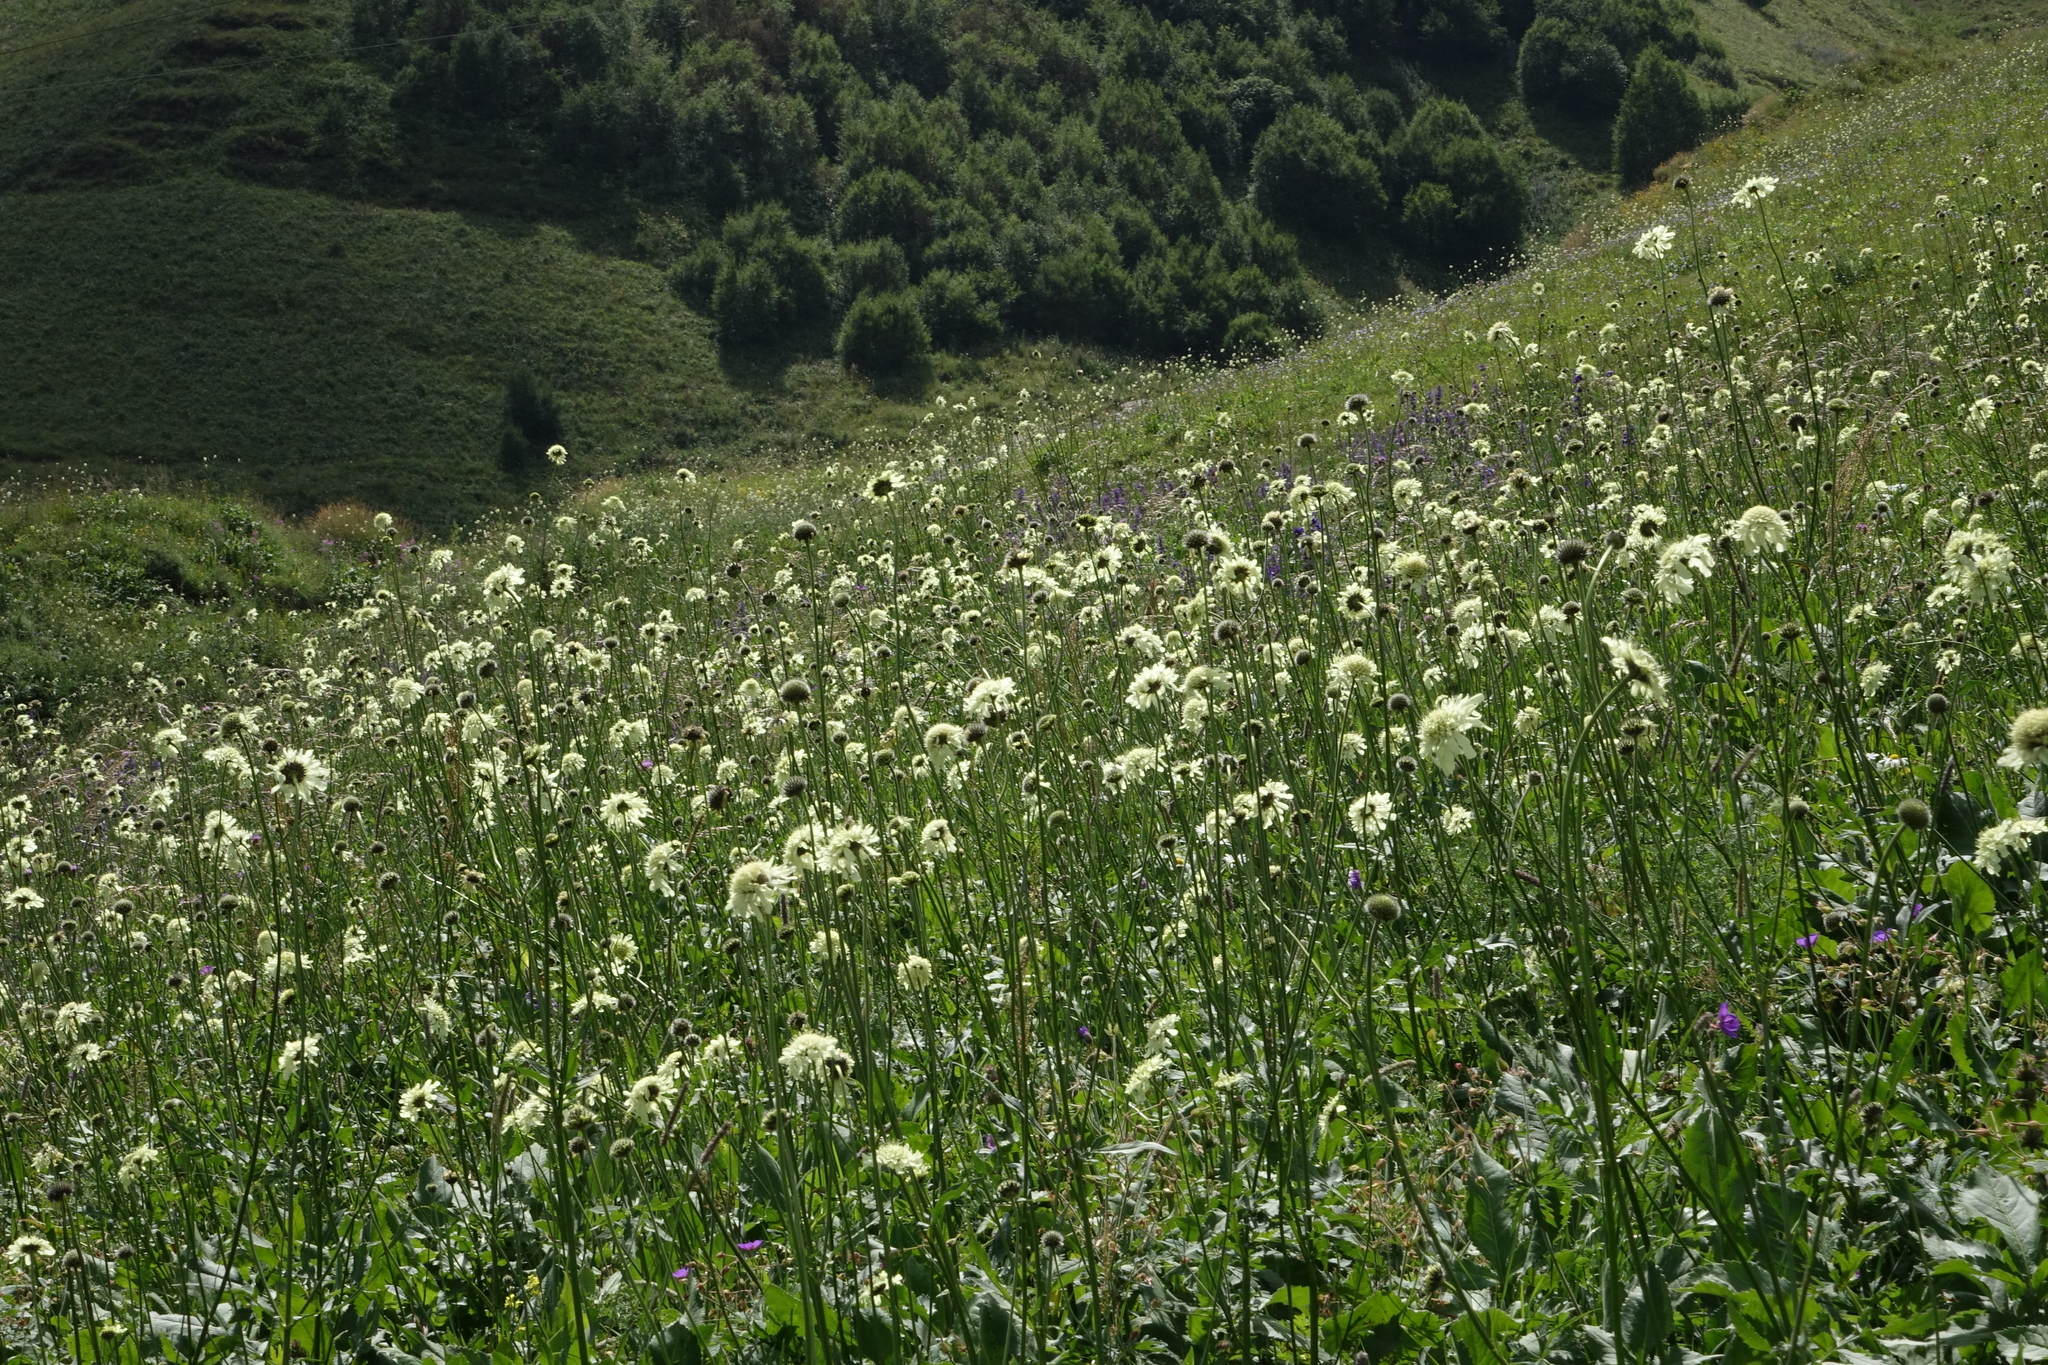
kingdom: Plantae
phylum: Tracheophyta
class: Magnoliopsida
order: Dipsacales
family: Caprifoliaceae
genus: Cephalaria
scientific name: Cephalaria gigantea
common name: Tatarian cephalaria
